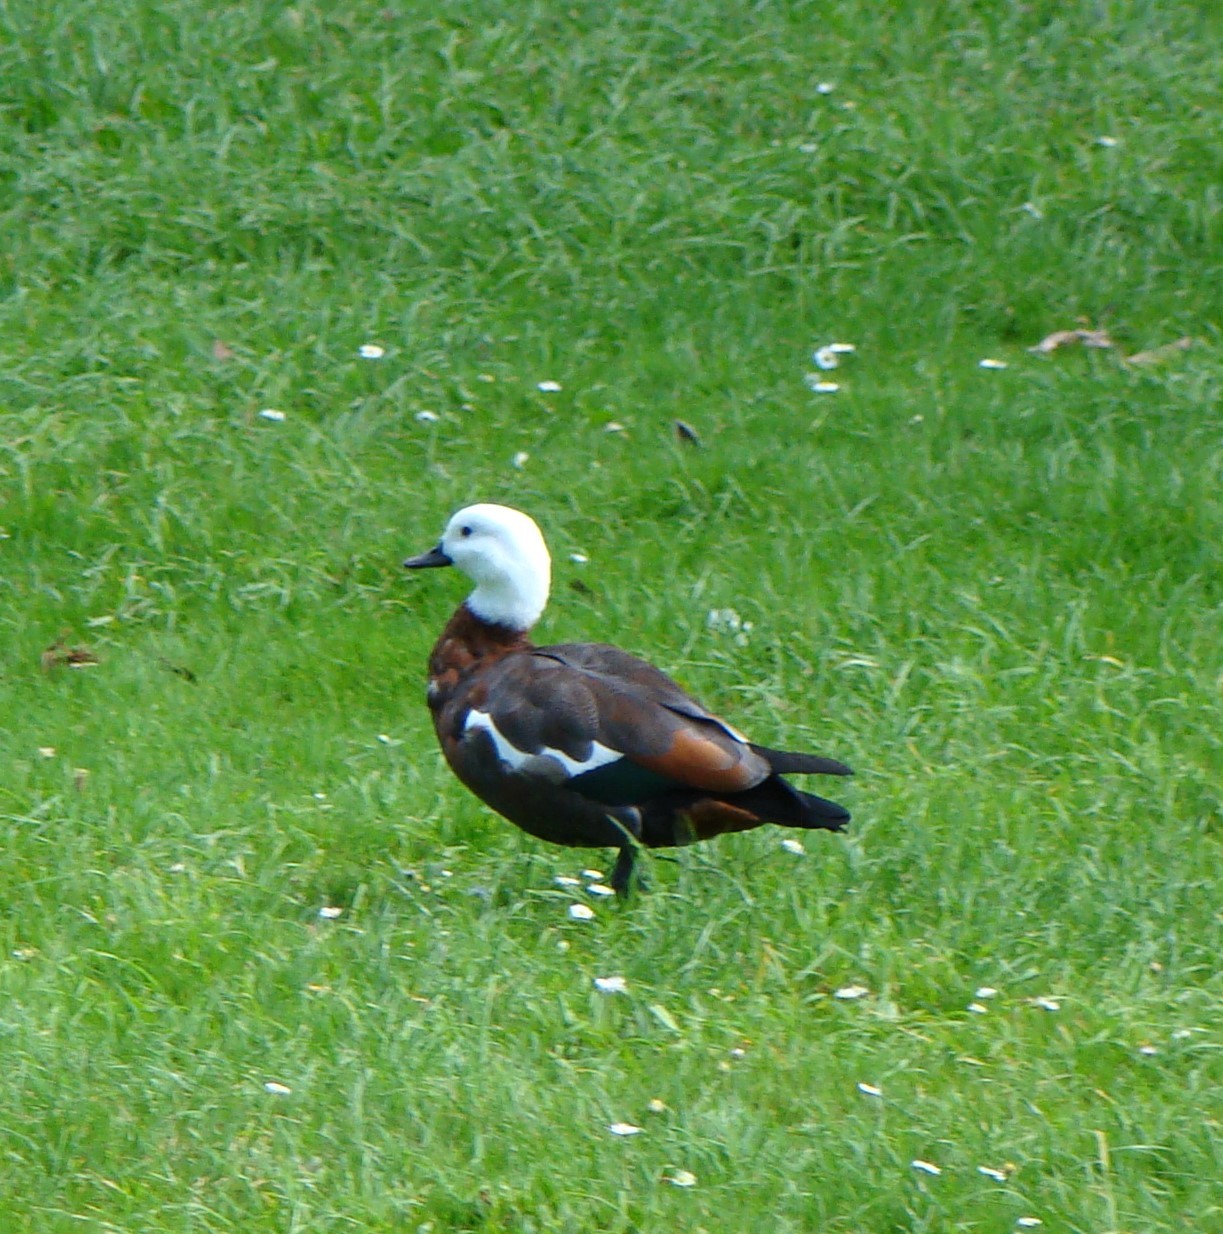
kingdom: Animalia
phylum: Chordata
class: Aves
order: Anseriformes
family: Anatidae
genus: Tadorna
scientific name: Tadorna variegata
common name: Paradise shelduck
